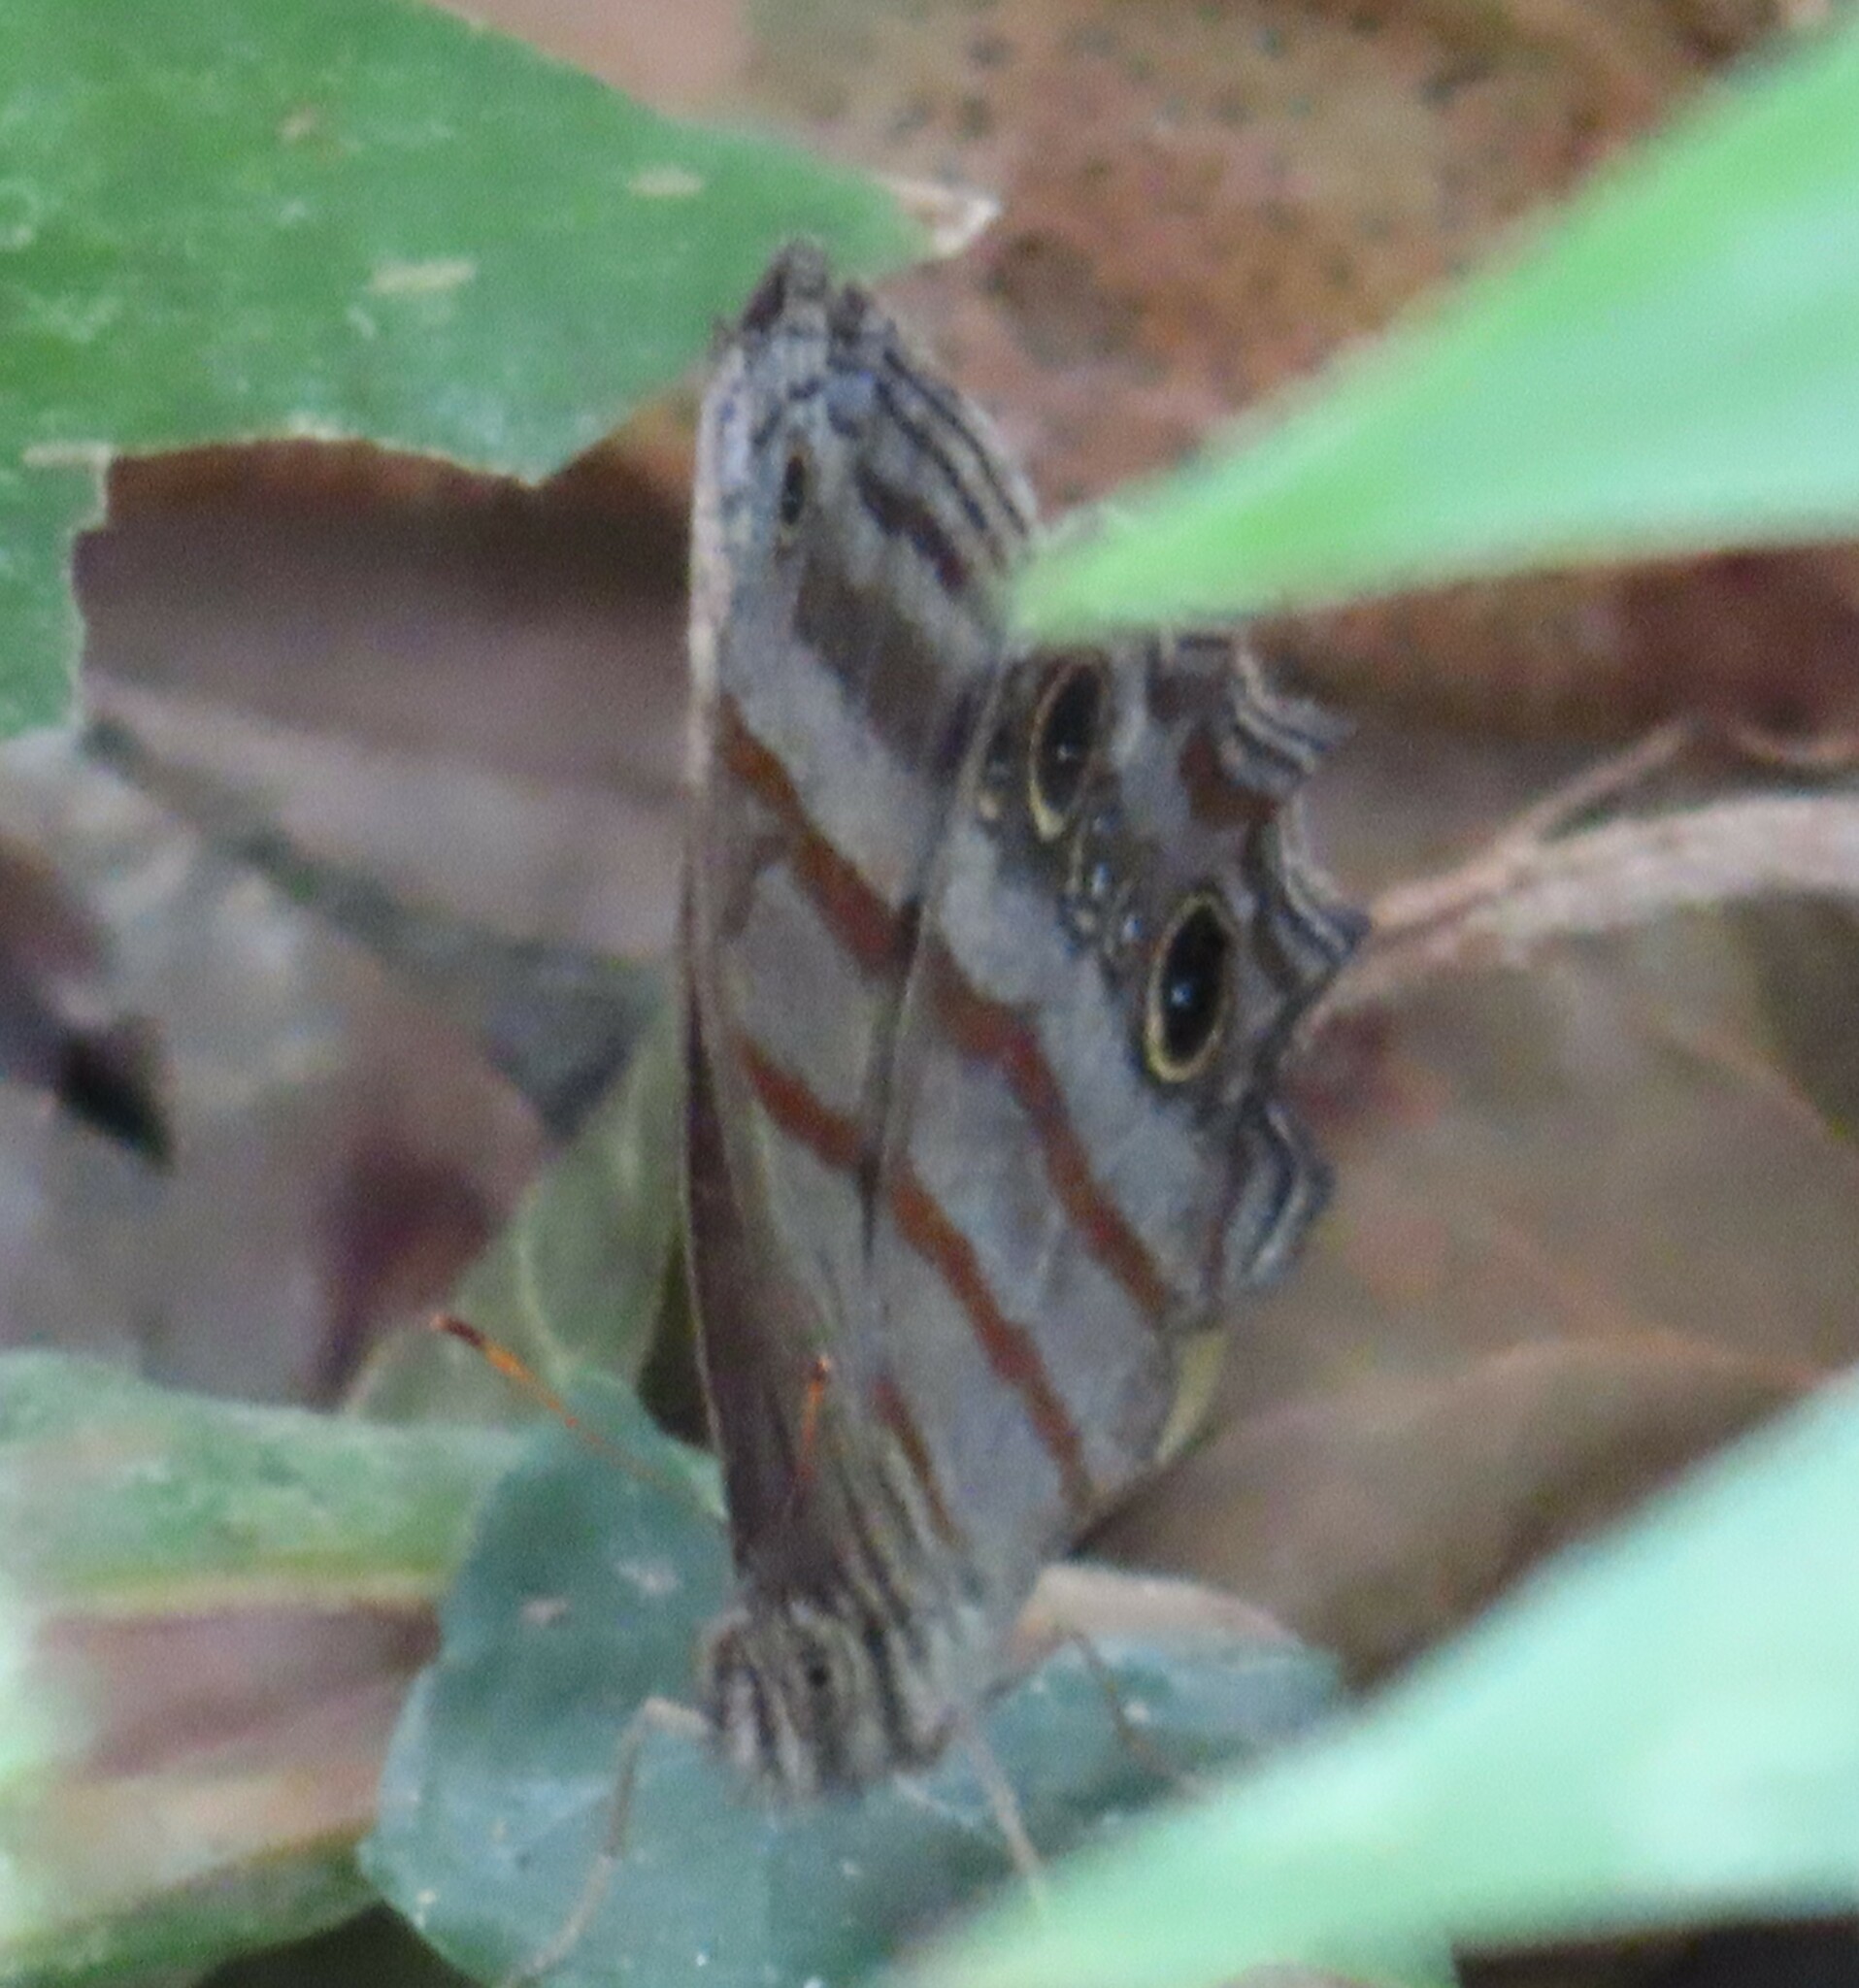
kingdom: Animalia
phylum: Arthropoda
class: Insecta
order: Lepidoptera
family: Nymphalidae
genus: Magneuptychia
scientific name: Magneuptychia libye
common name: Blue-gray satyr
